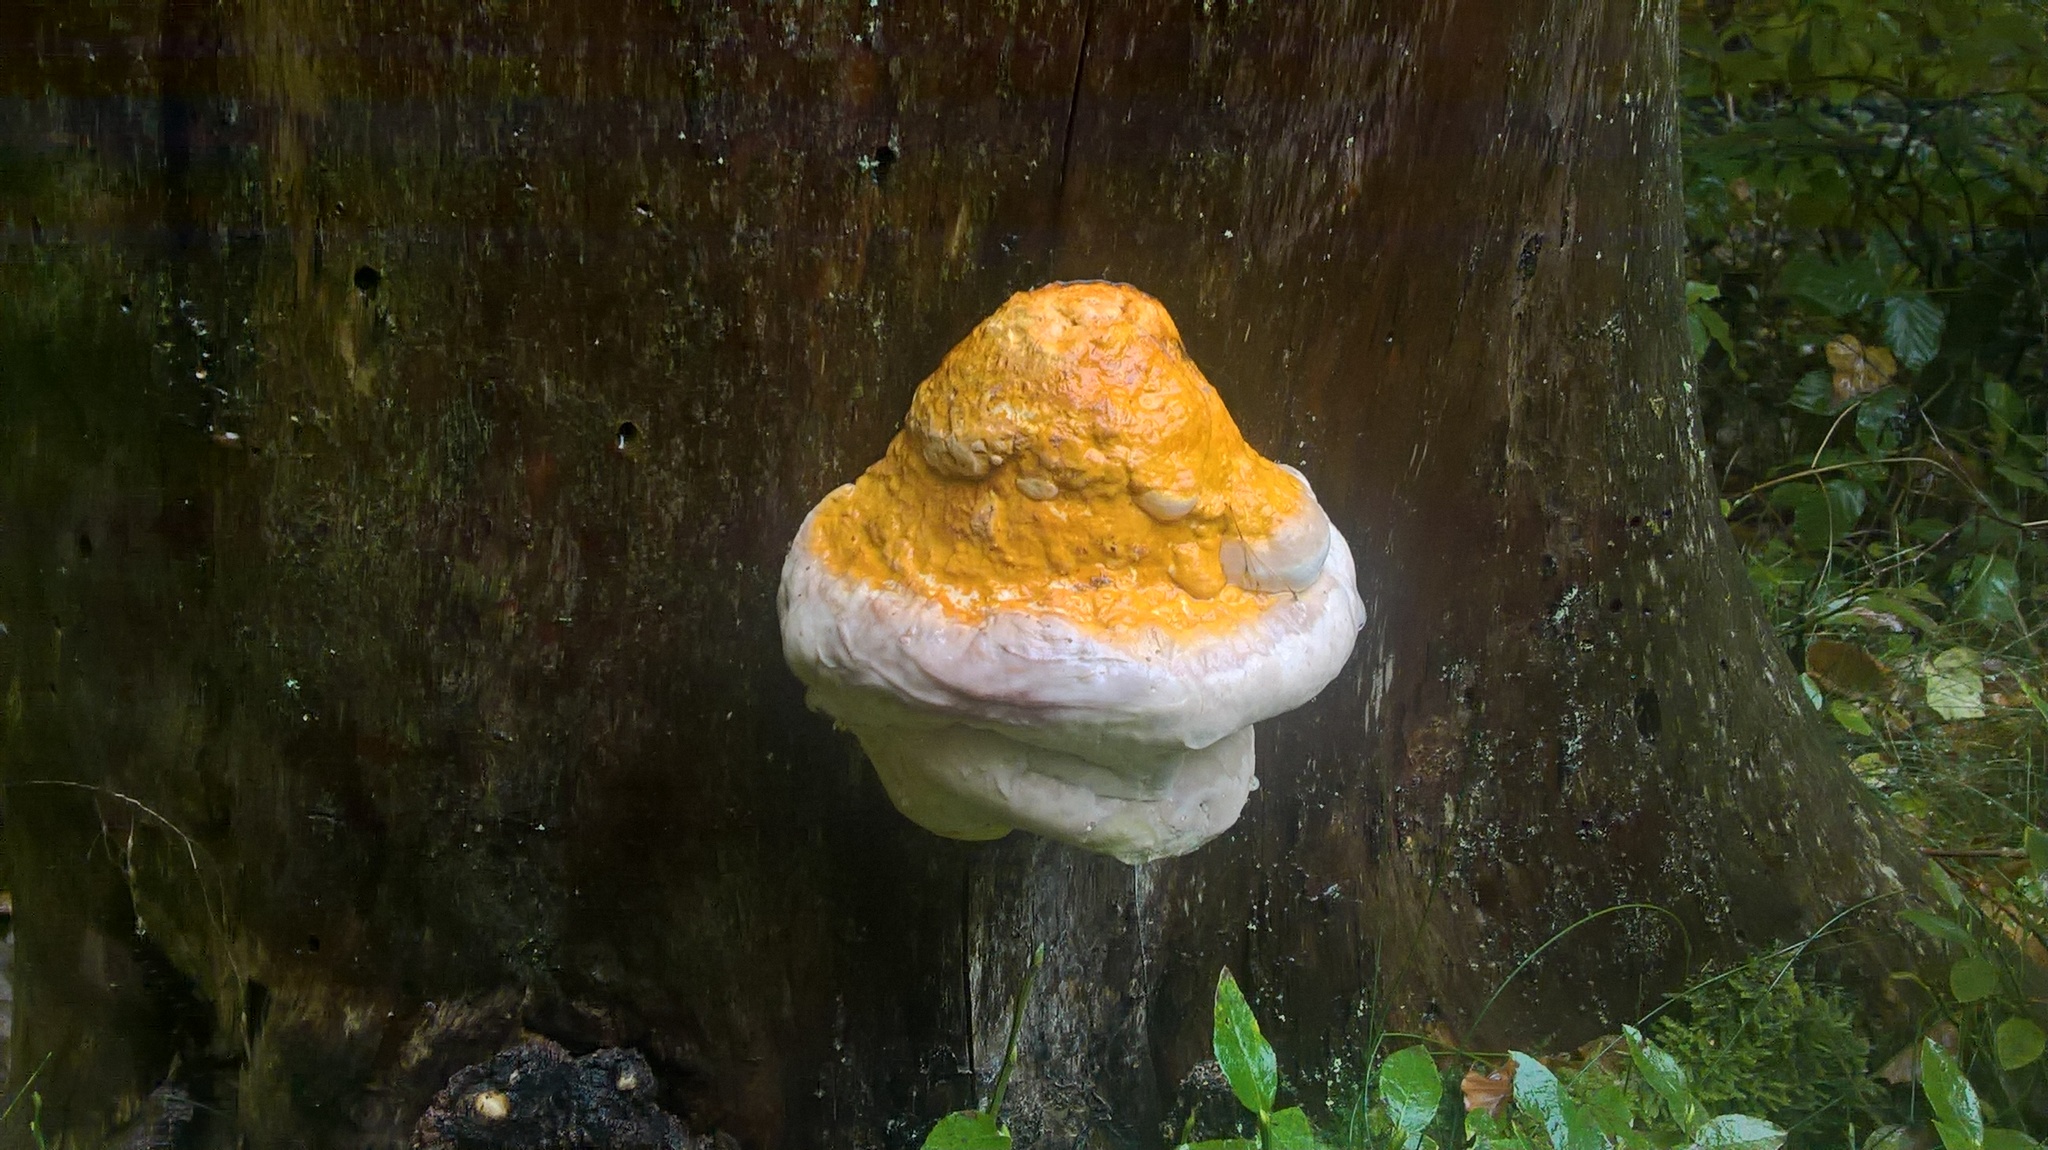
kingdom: Fungi
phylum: Basidiomycota
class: Agaricomycetes
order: Polyporales
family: Fomitopsidaceae
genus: Fomitopsis
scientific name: Fomitopsis pinicola
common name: Red-belted bracket
